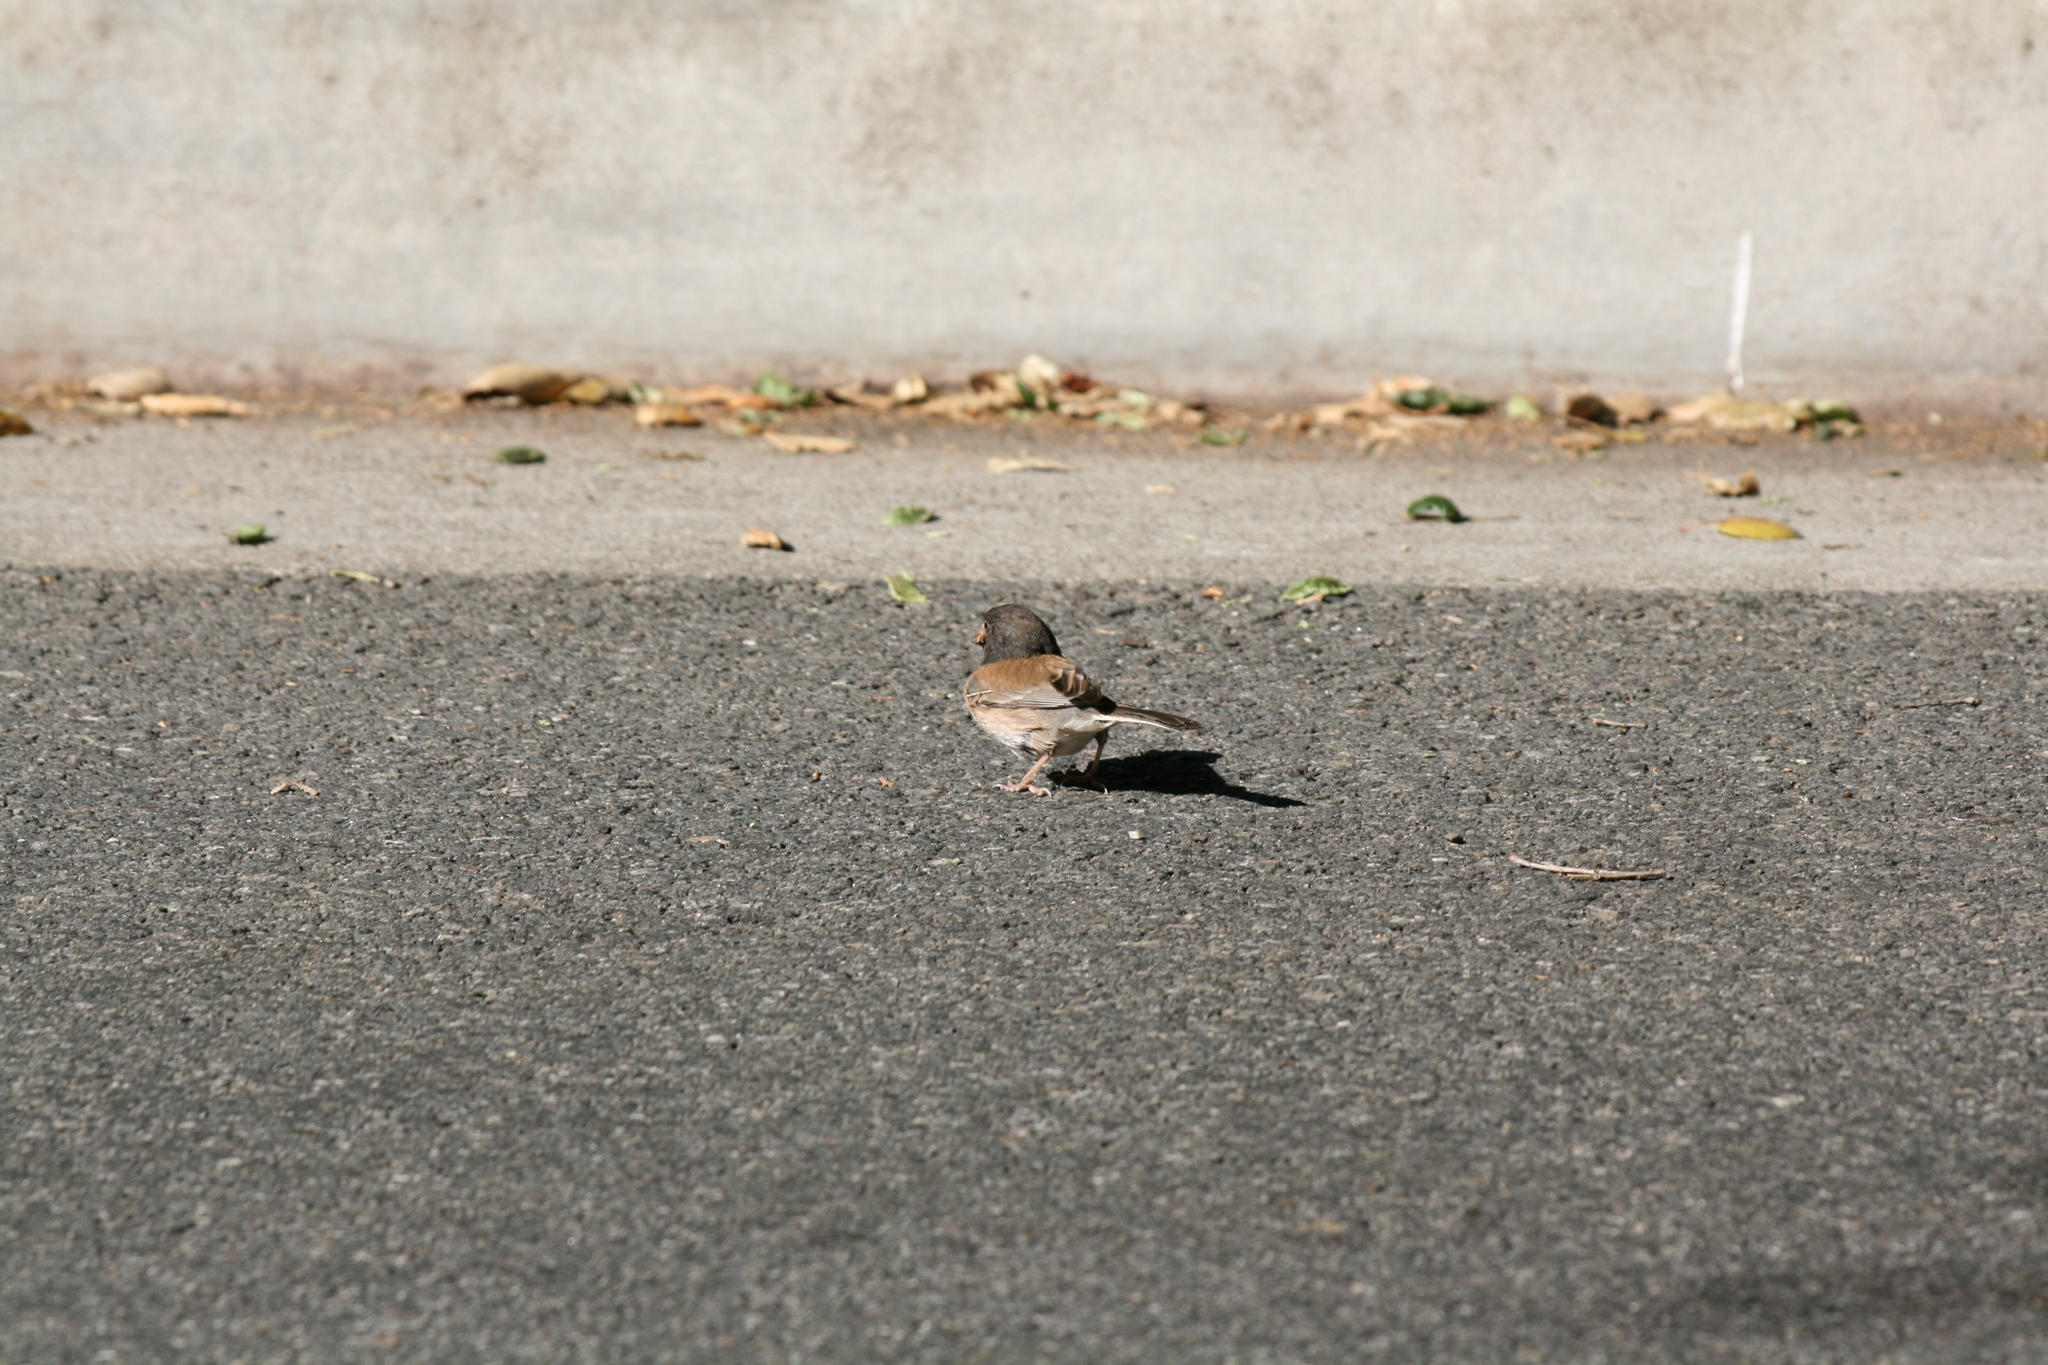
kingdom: Animalia
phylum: Chordata
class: Aves
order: Passeriformes
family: Passerellidae
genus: Junco
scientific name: Junco hyemalis
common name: Dark-eyed junco
